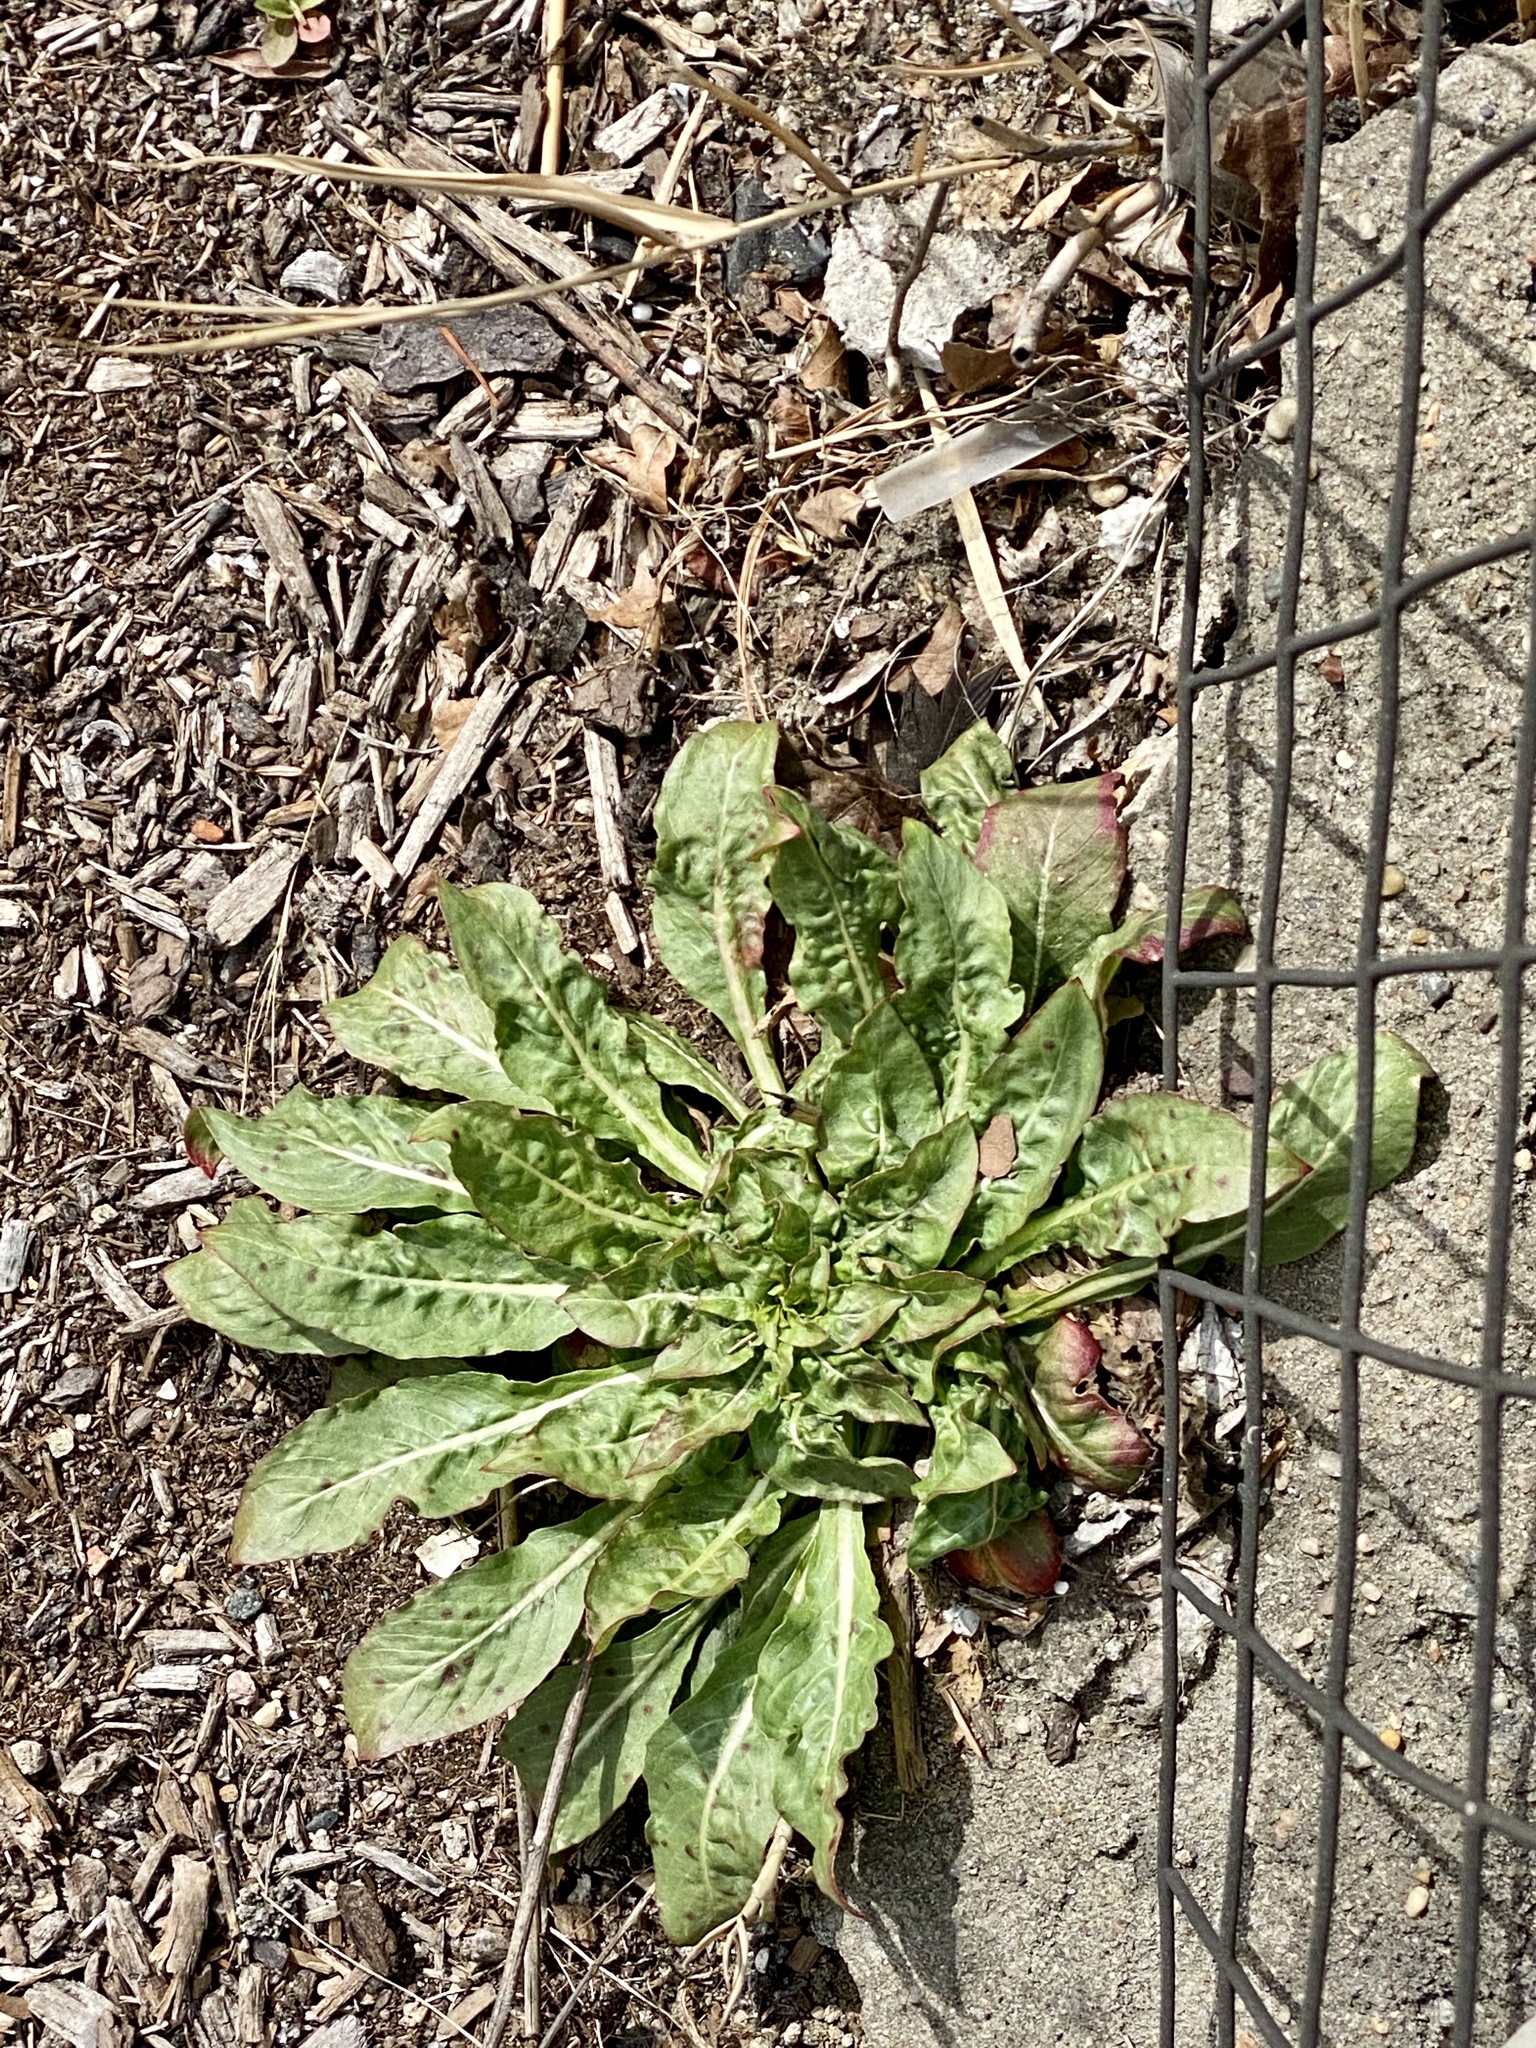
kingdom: Plantae
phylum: Tracheophyta
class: Magnoliopsida
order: Myrtales
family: Onagraceae
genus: Oenothera
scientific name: Oenothera biennis
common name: Common evening-primrose
